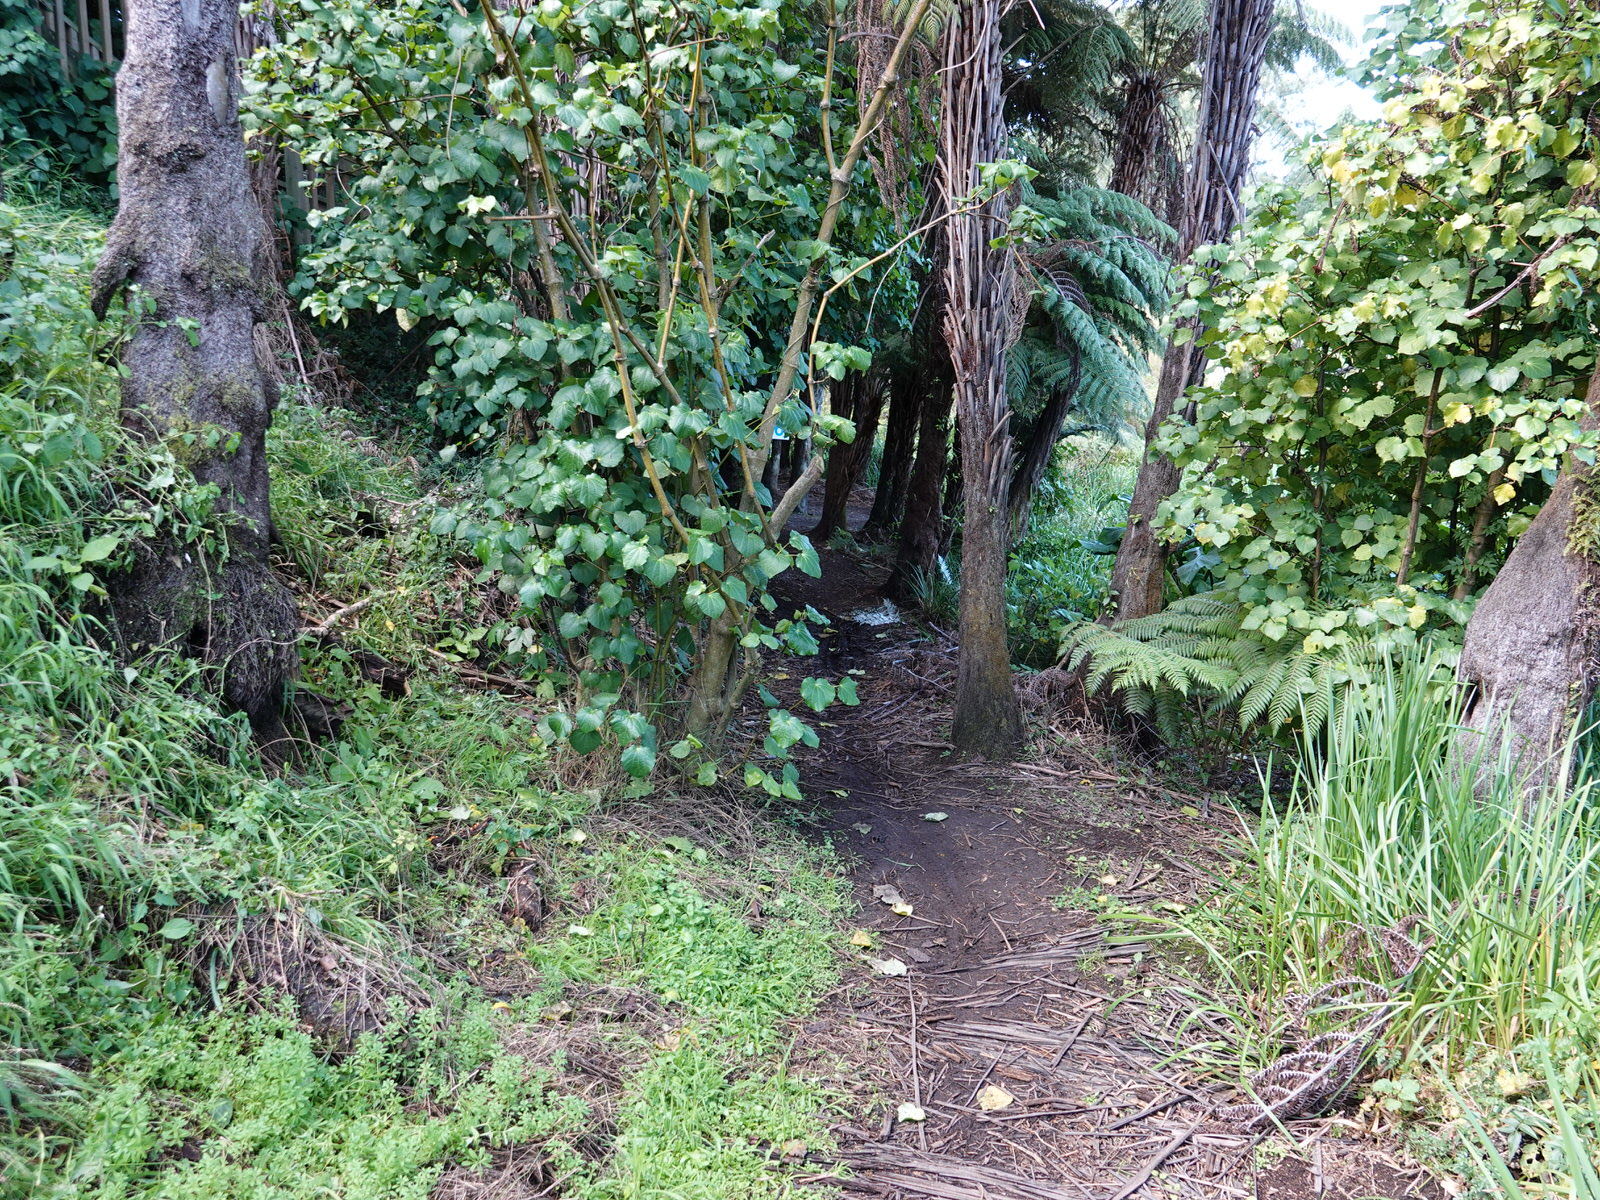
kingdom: Fungi
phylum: Basidiomycota
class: Agaricomycetes
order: Agaricales
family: Mycenaceae
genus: Favolaschia
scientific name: Favolaschia claudopus
